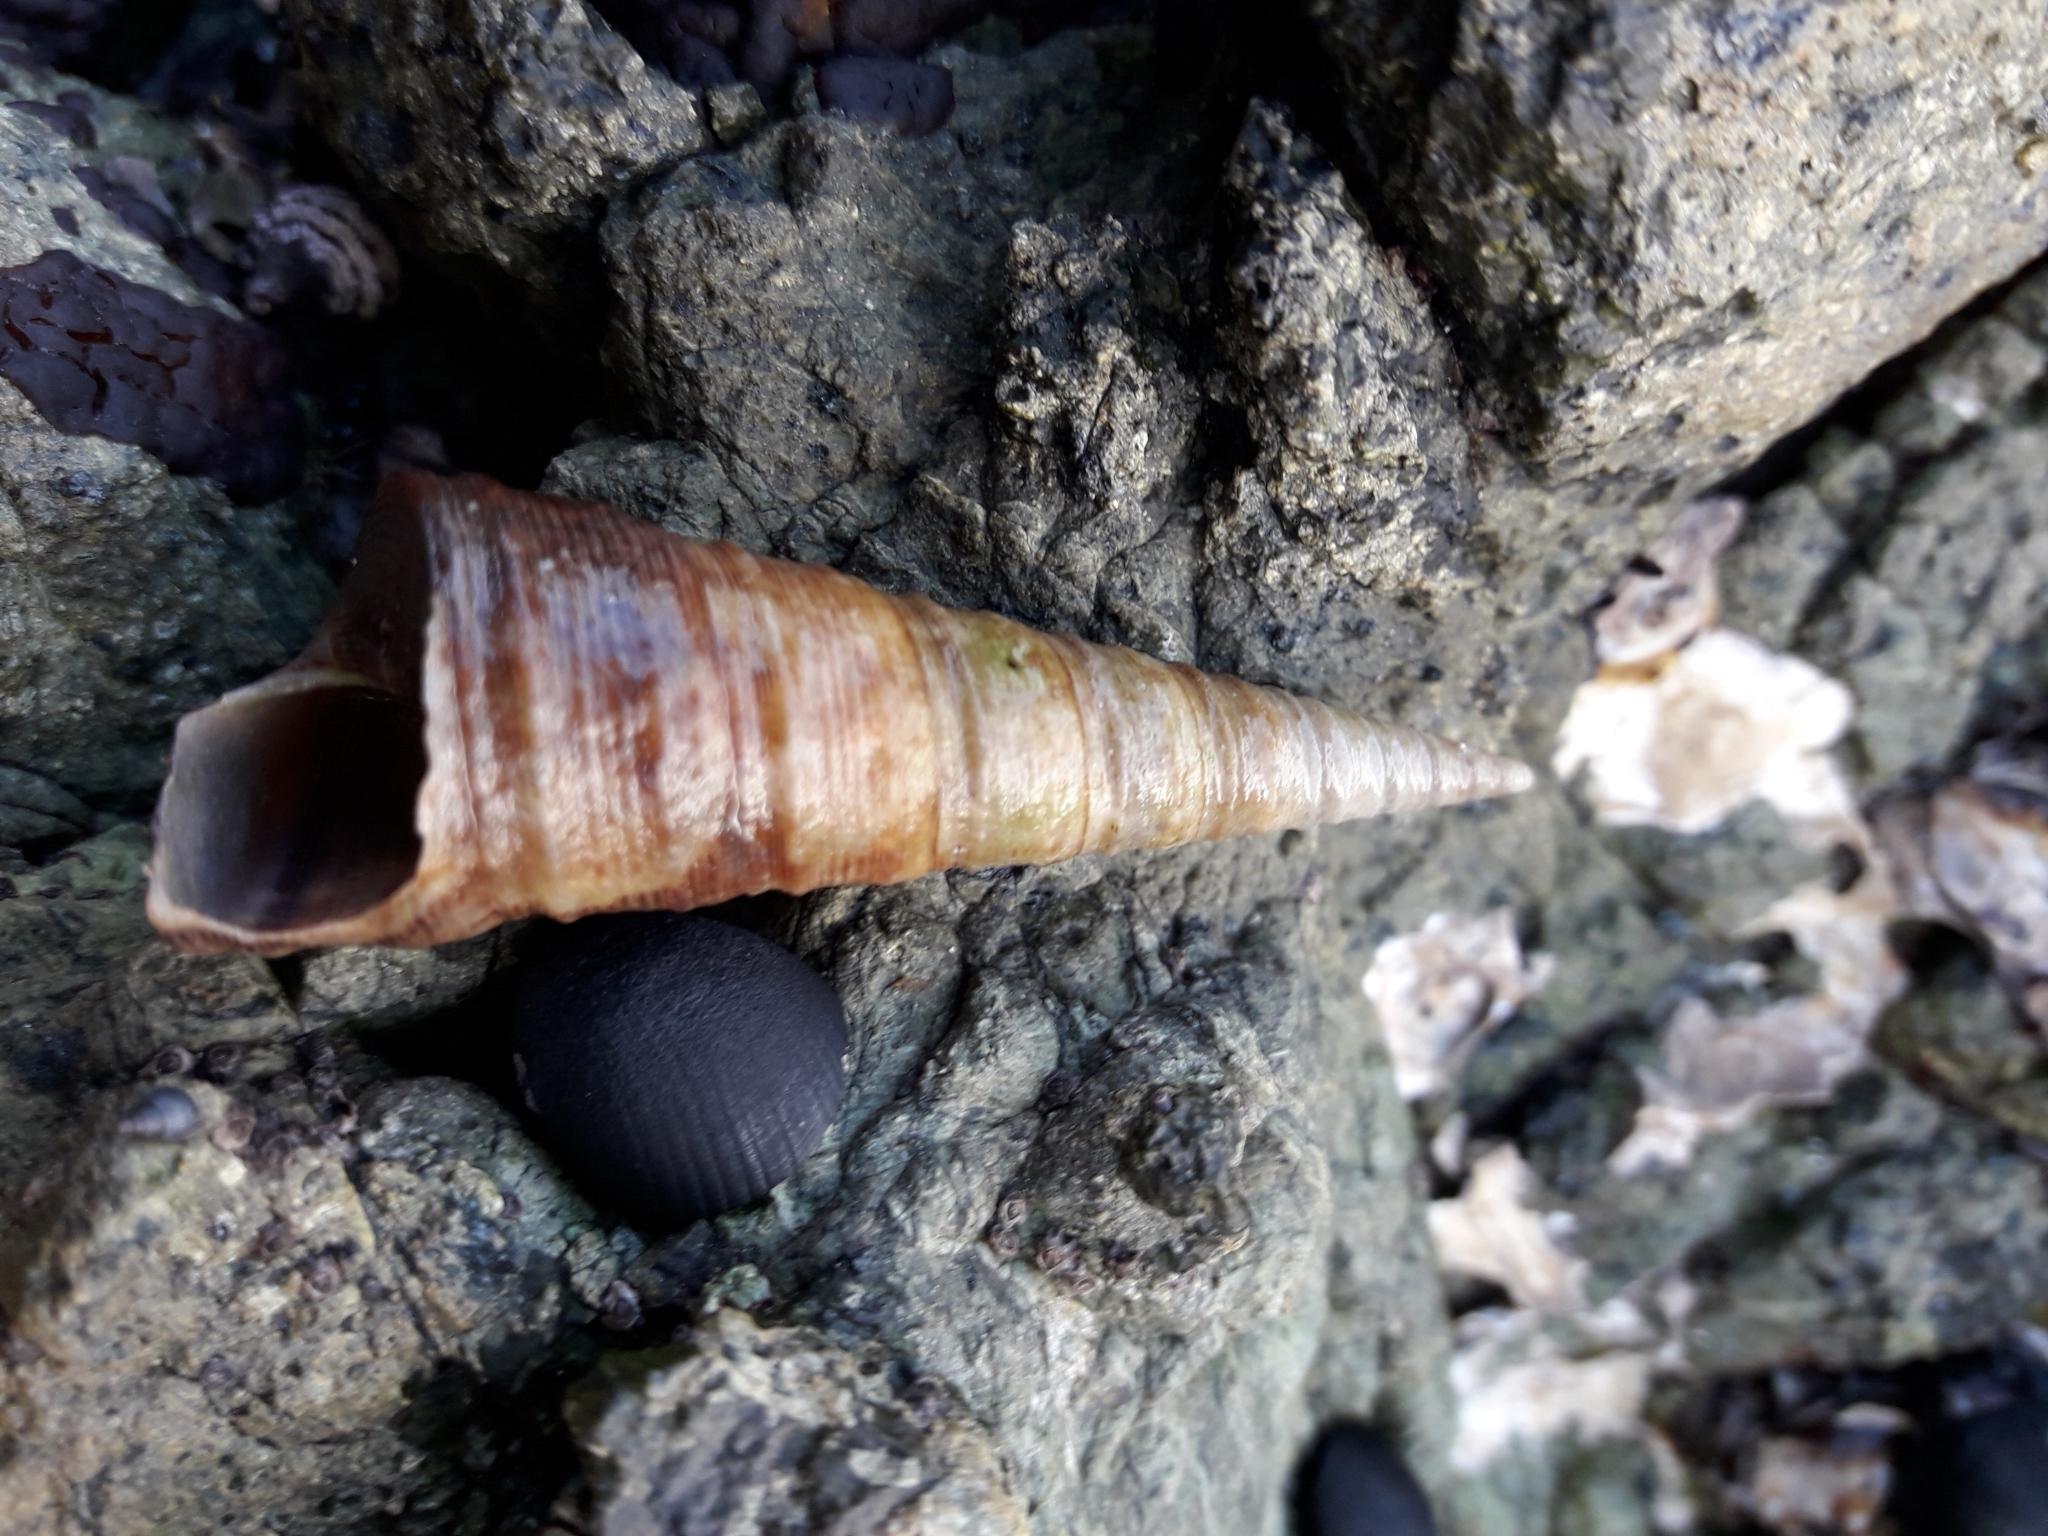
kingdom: Animalia
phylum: Mollusca
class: Gastropoda
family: Turritellidae
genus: Maoricolpus
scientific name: Maoricolpus roseus
